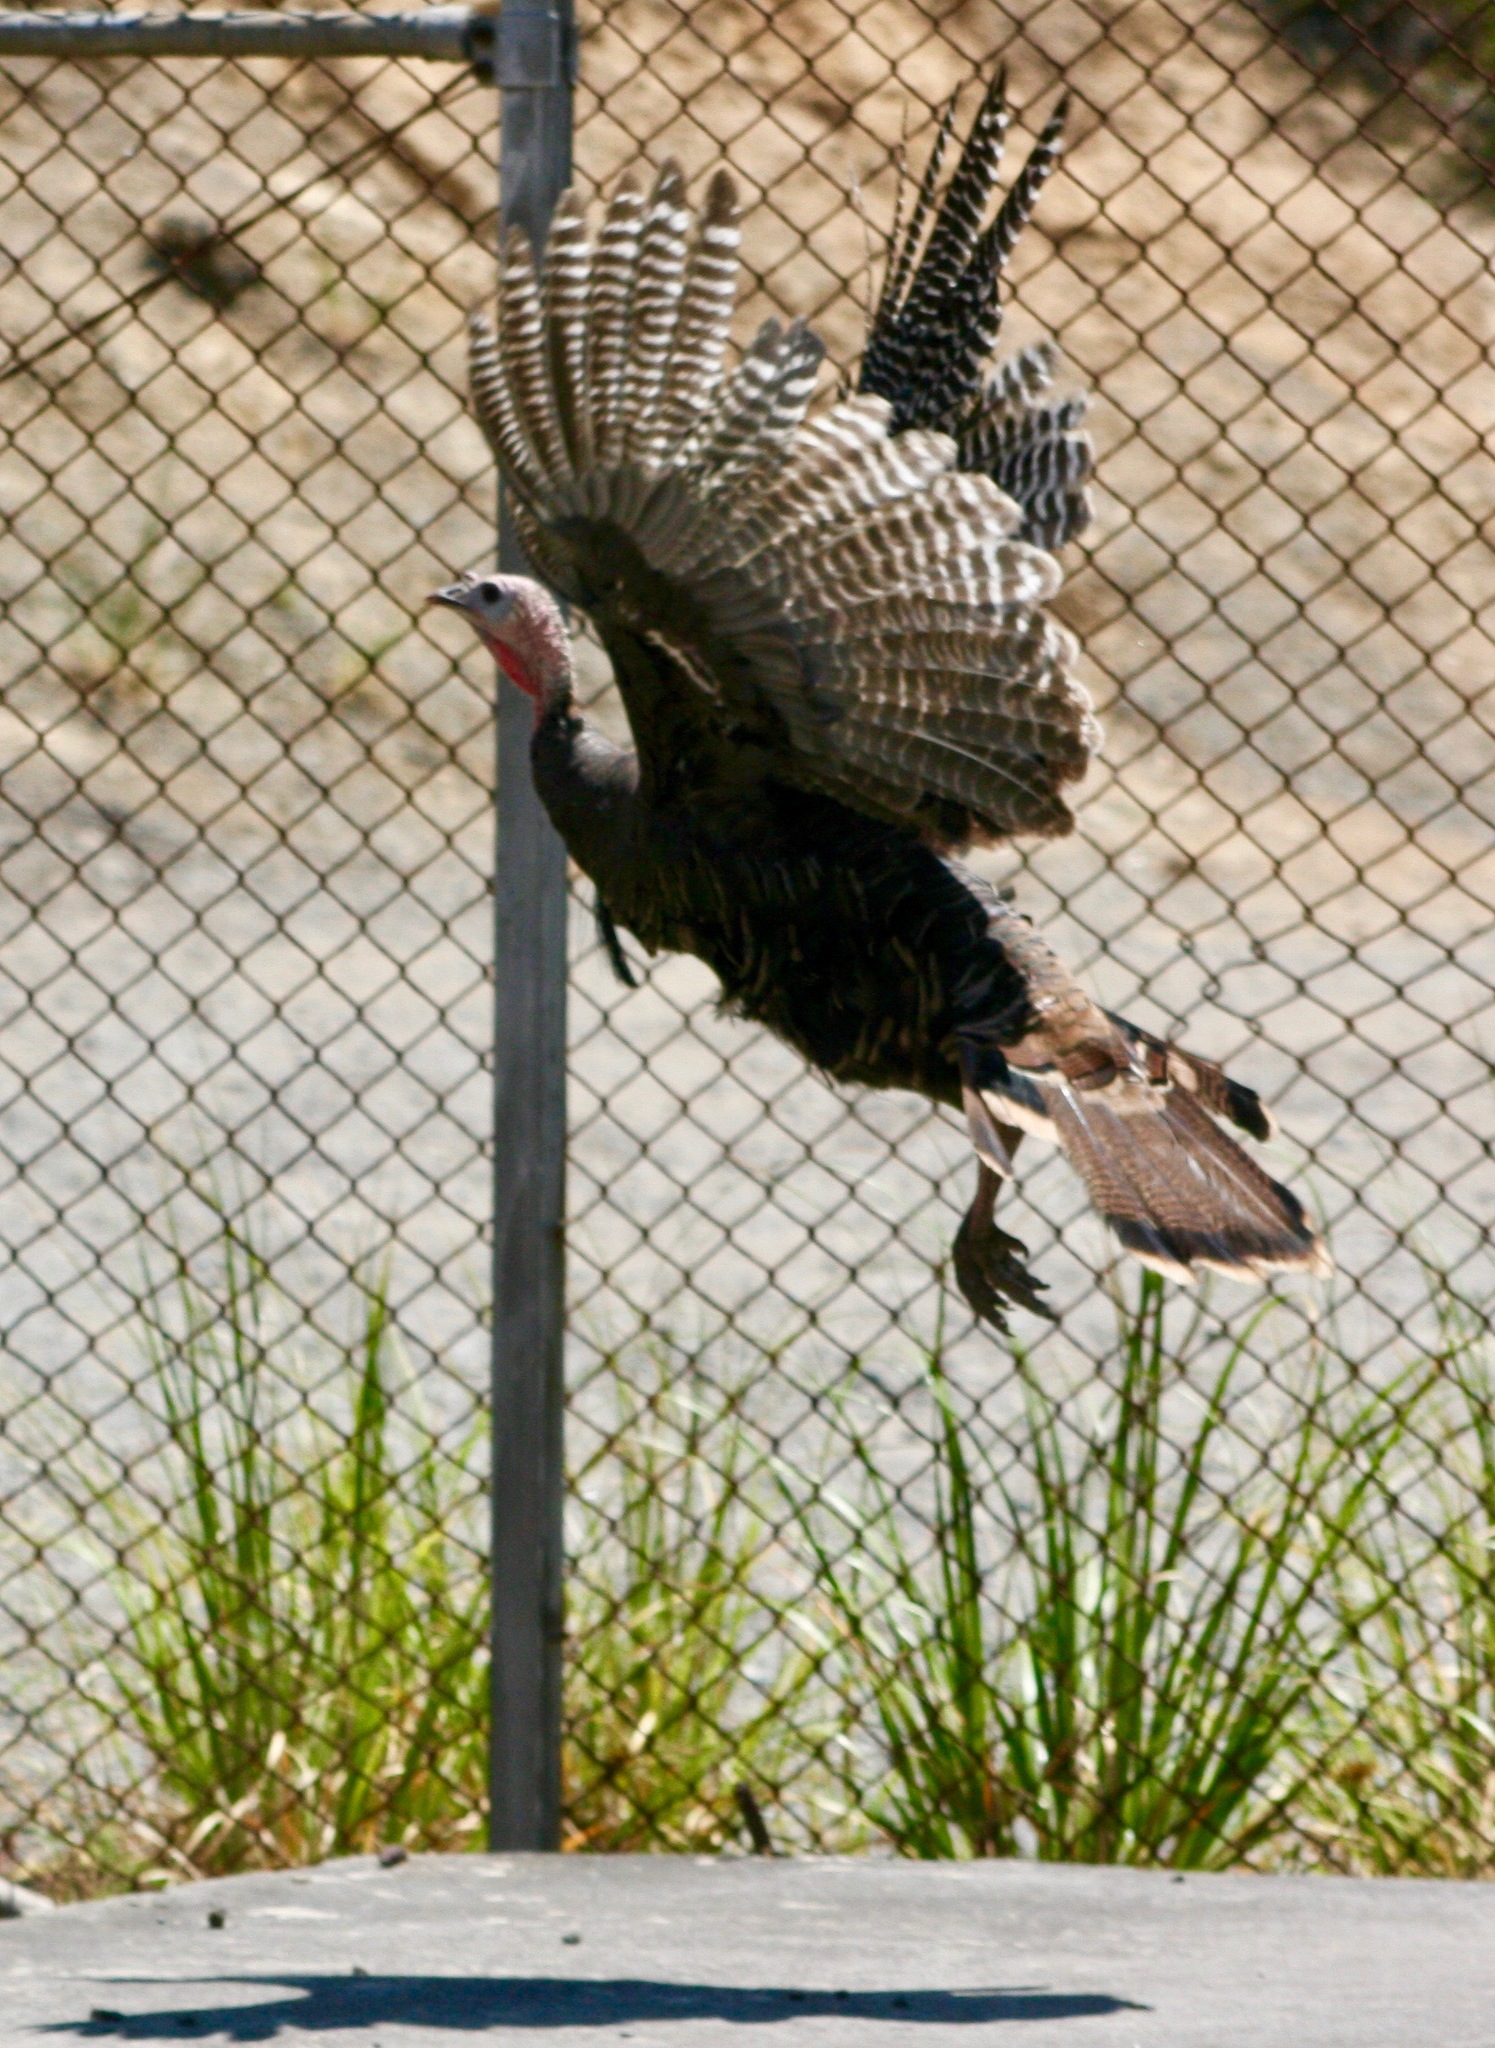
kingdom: Animalia
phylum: Chordata
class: Aves
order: Galliformes
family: Phasianidae
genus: Meleagris
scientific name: Meleagris gallopavo
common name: Wild turkey
